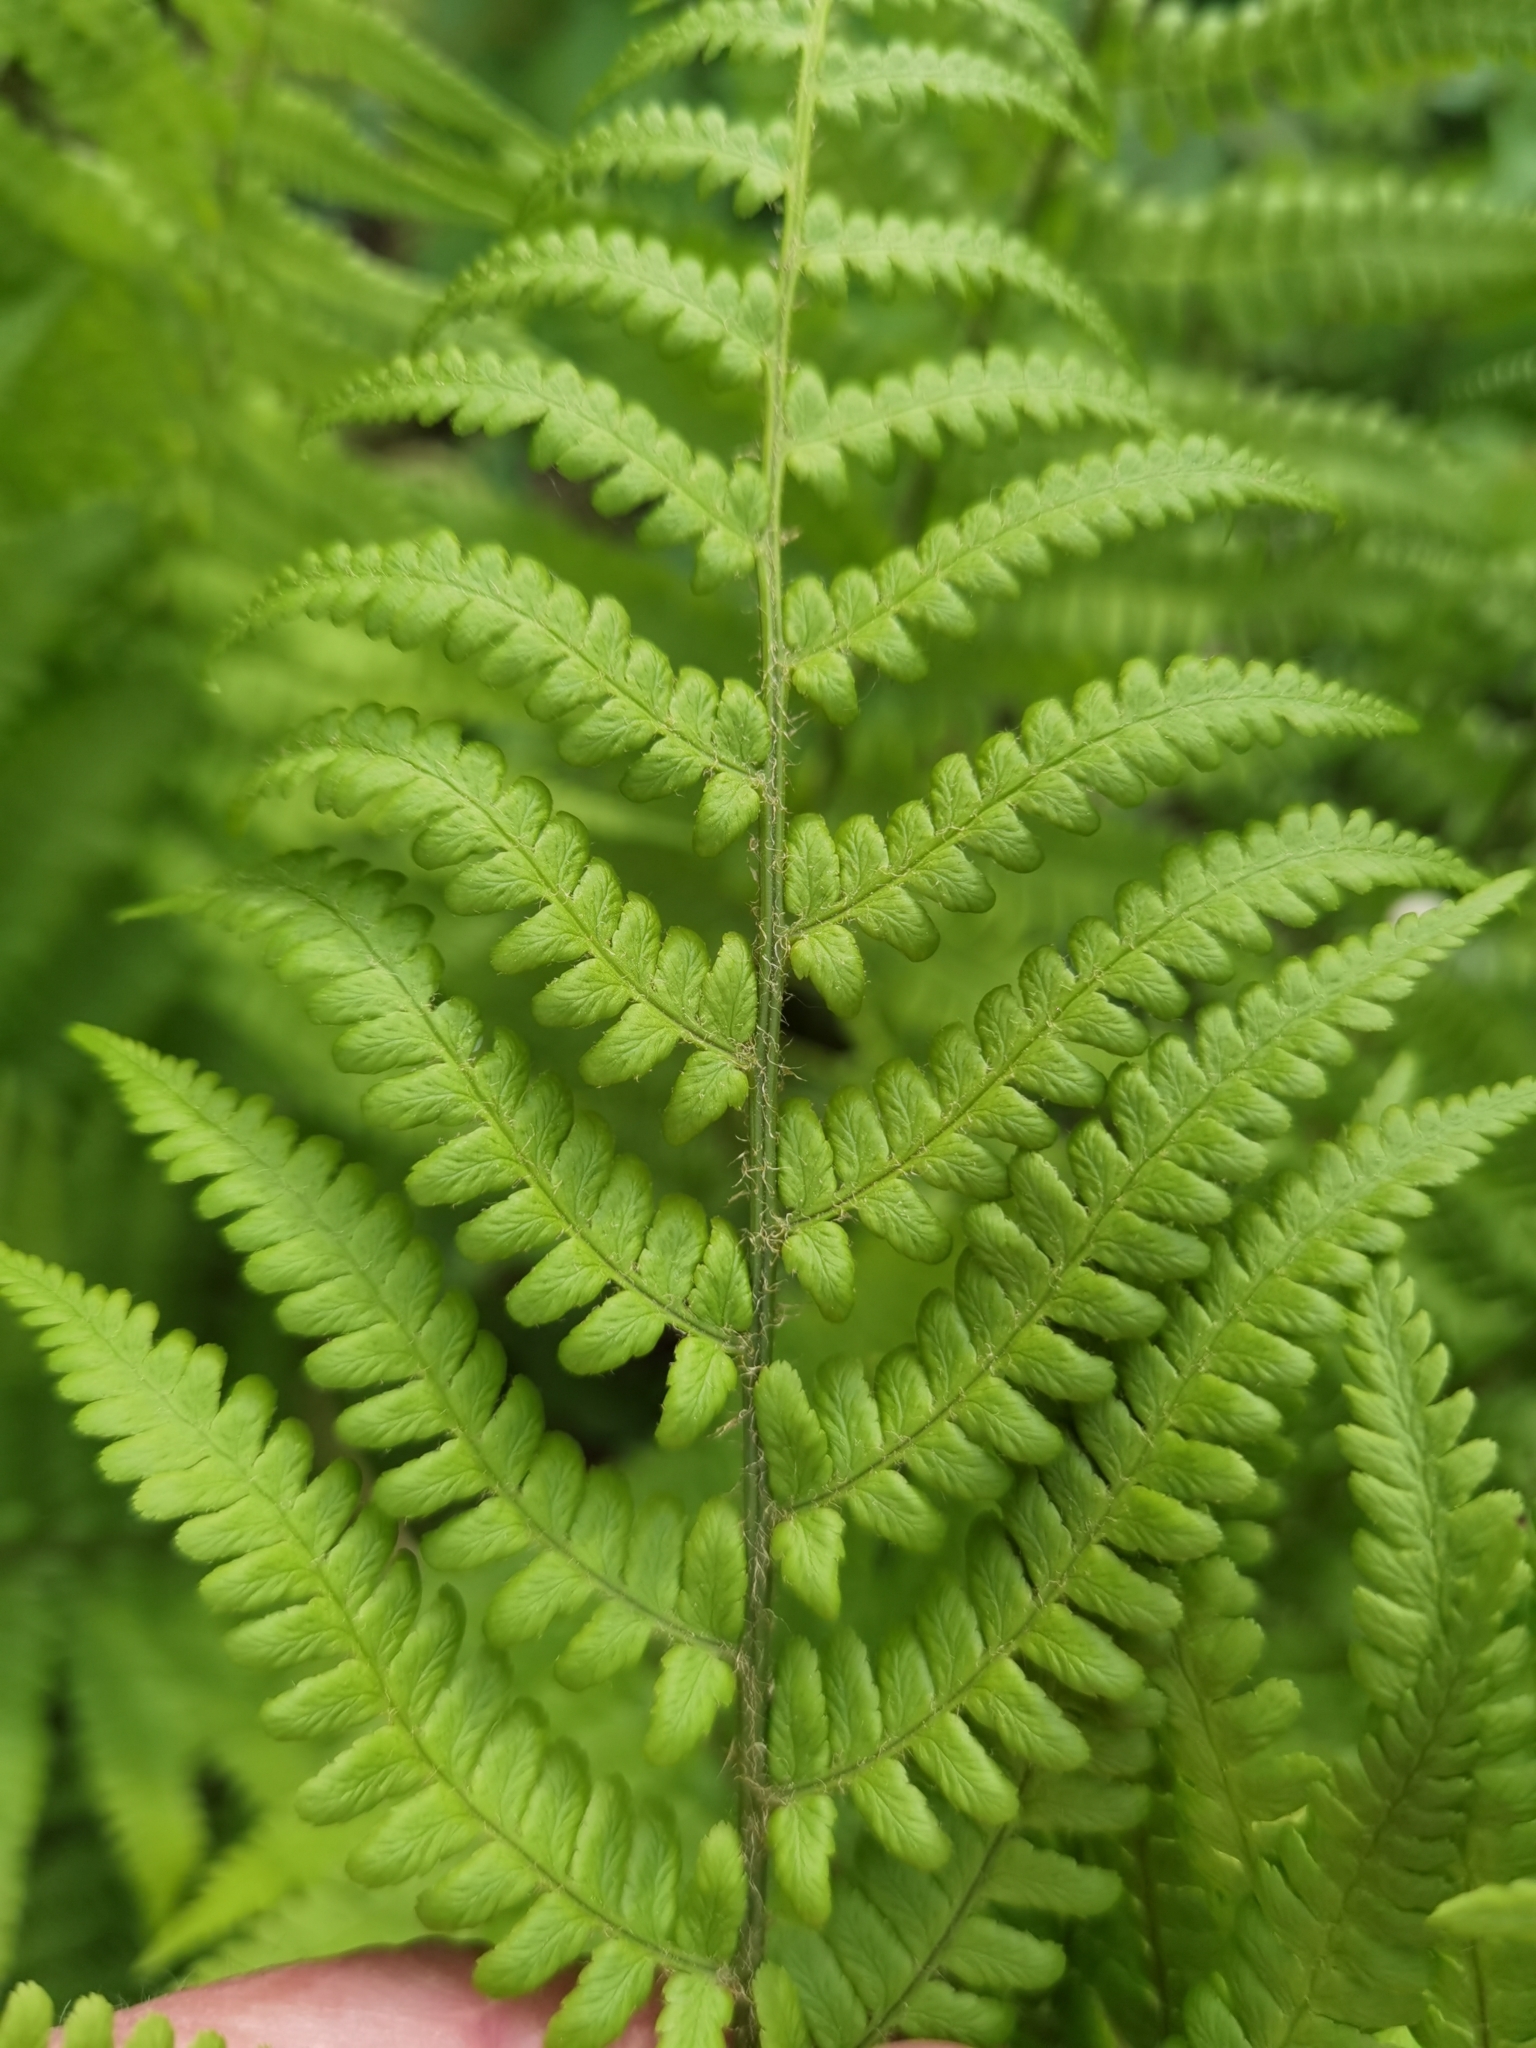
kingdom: Plantae
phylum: Tracheophyta
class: Polypodiopsida
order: Polypodiales
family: Dryopteridaceae
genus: Dryopteris
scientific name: Dryopteris filix-mas
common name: Male fern
